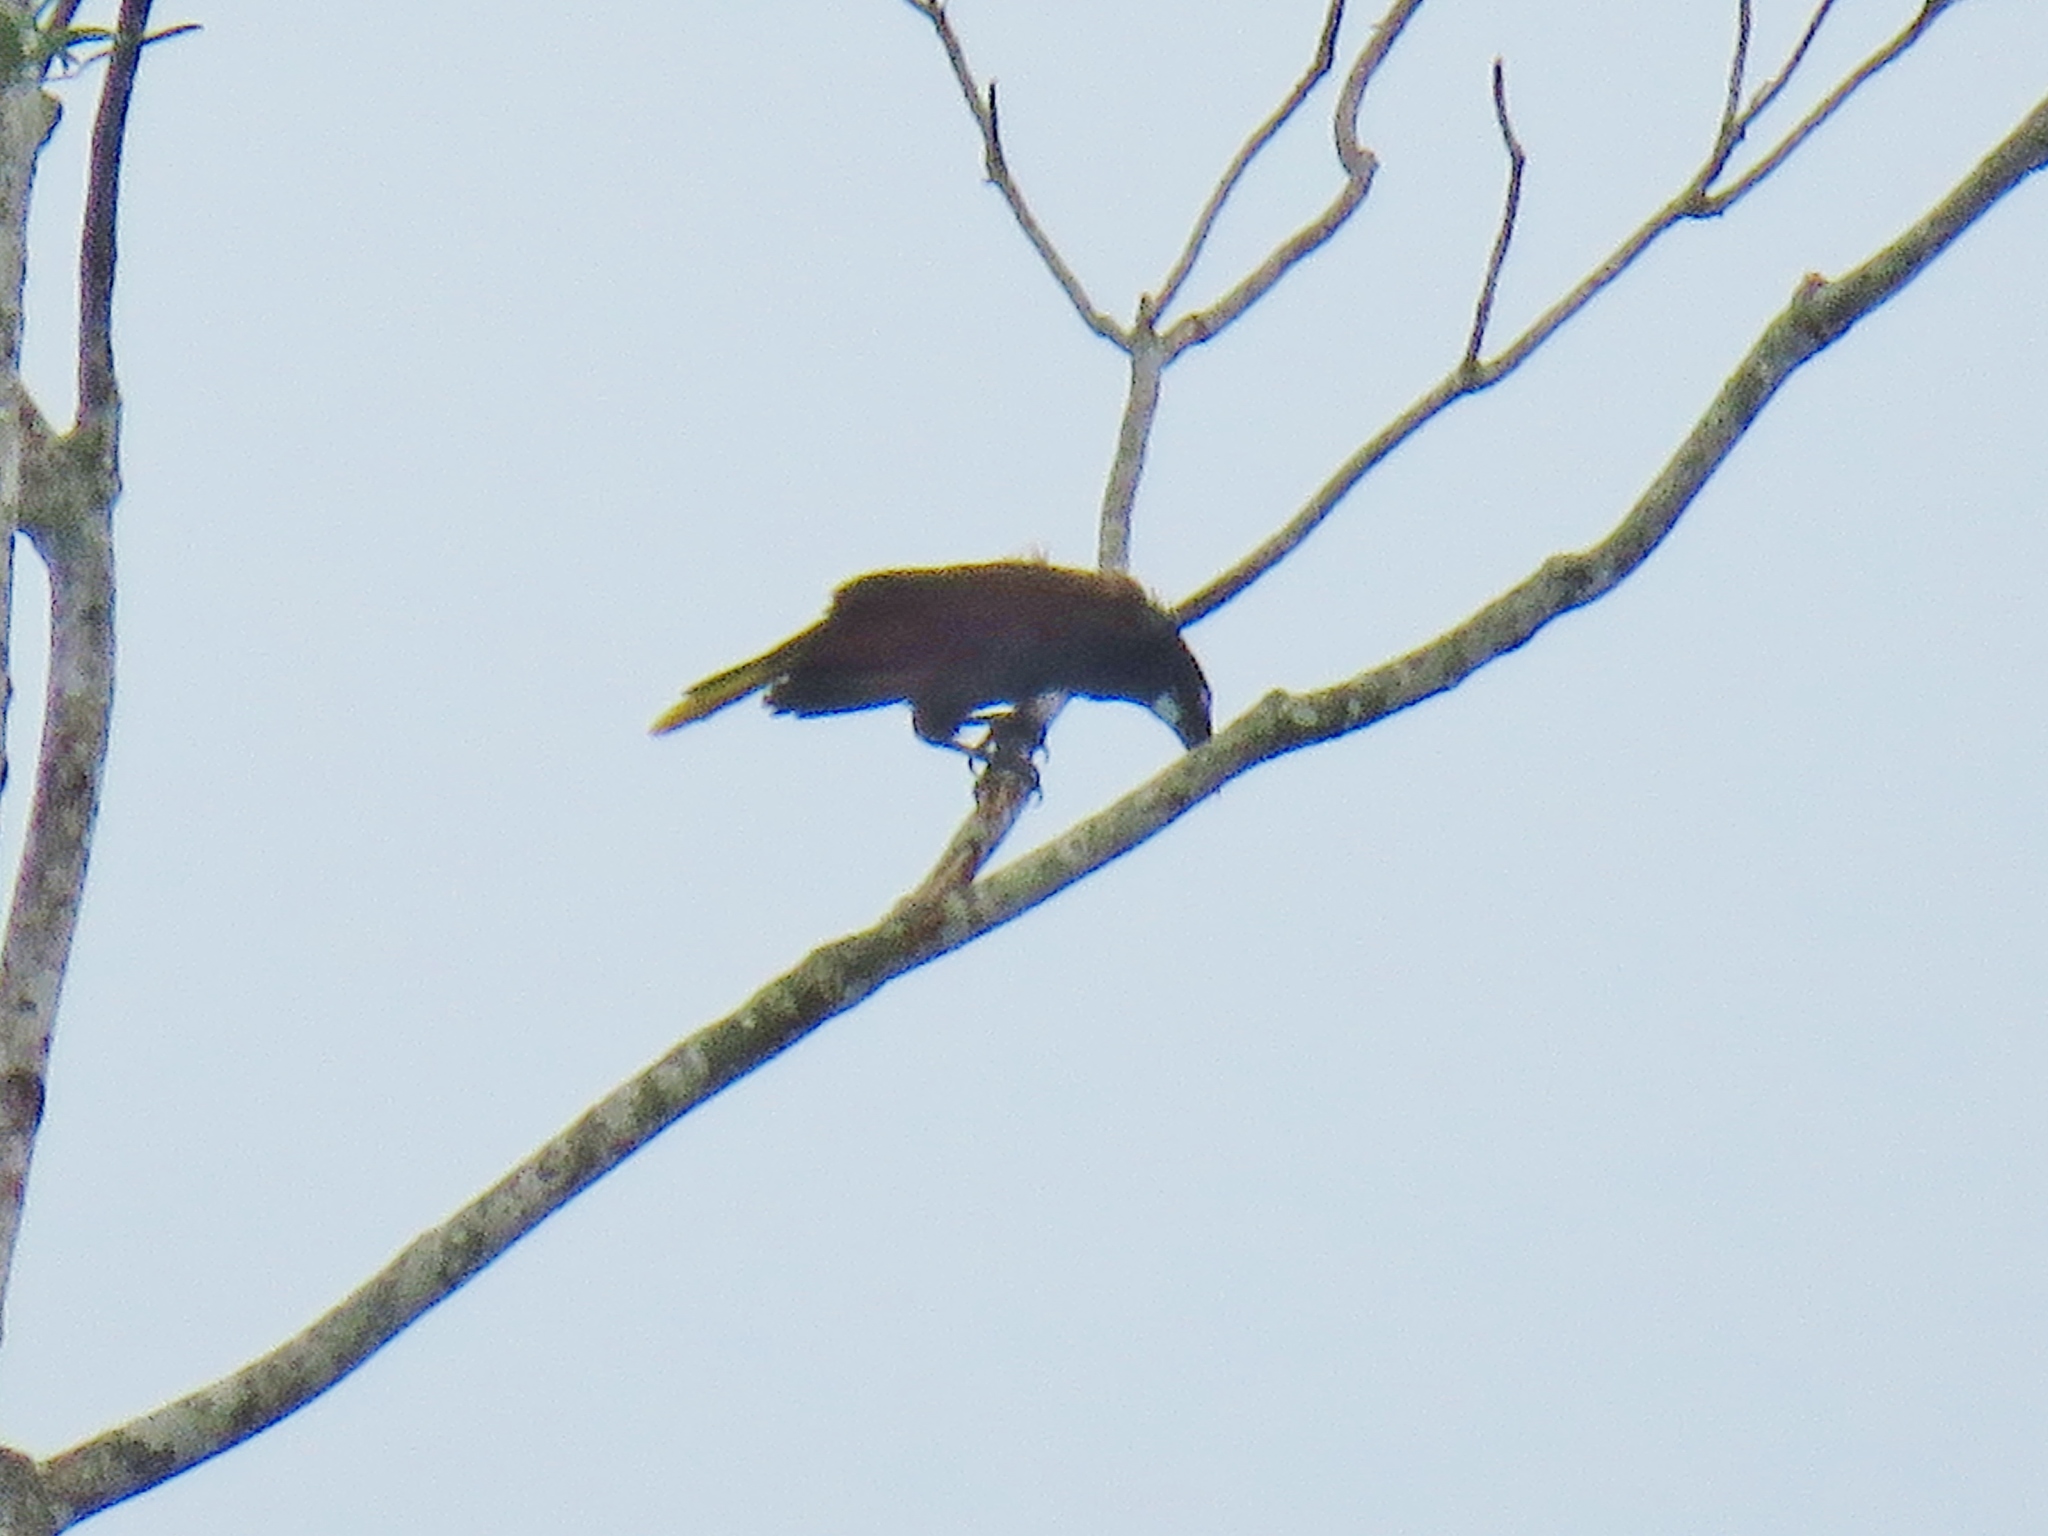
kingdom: Animalia
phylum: Chordata
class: Aves
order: Passeriformes
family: Icteridae
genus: Psarocolius
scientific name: Psarocolius montezuma
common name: Montezuma oropendola
